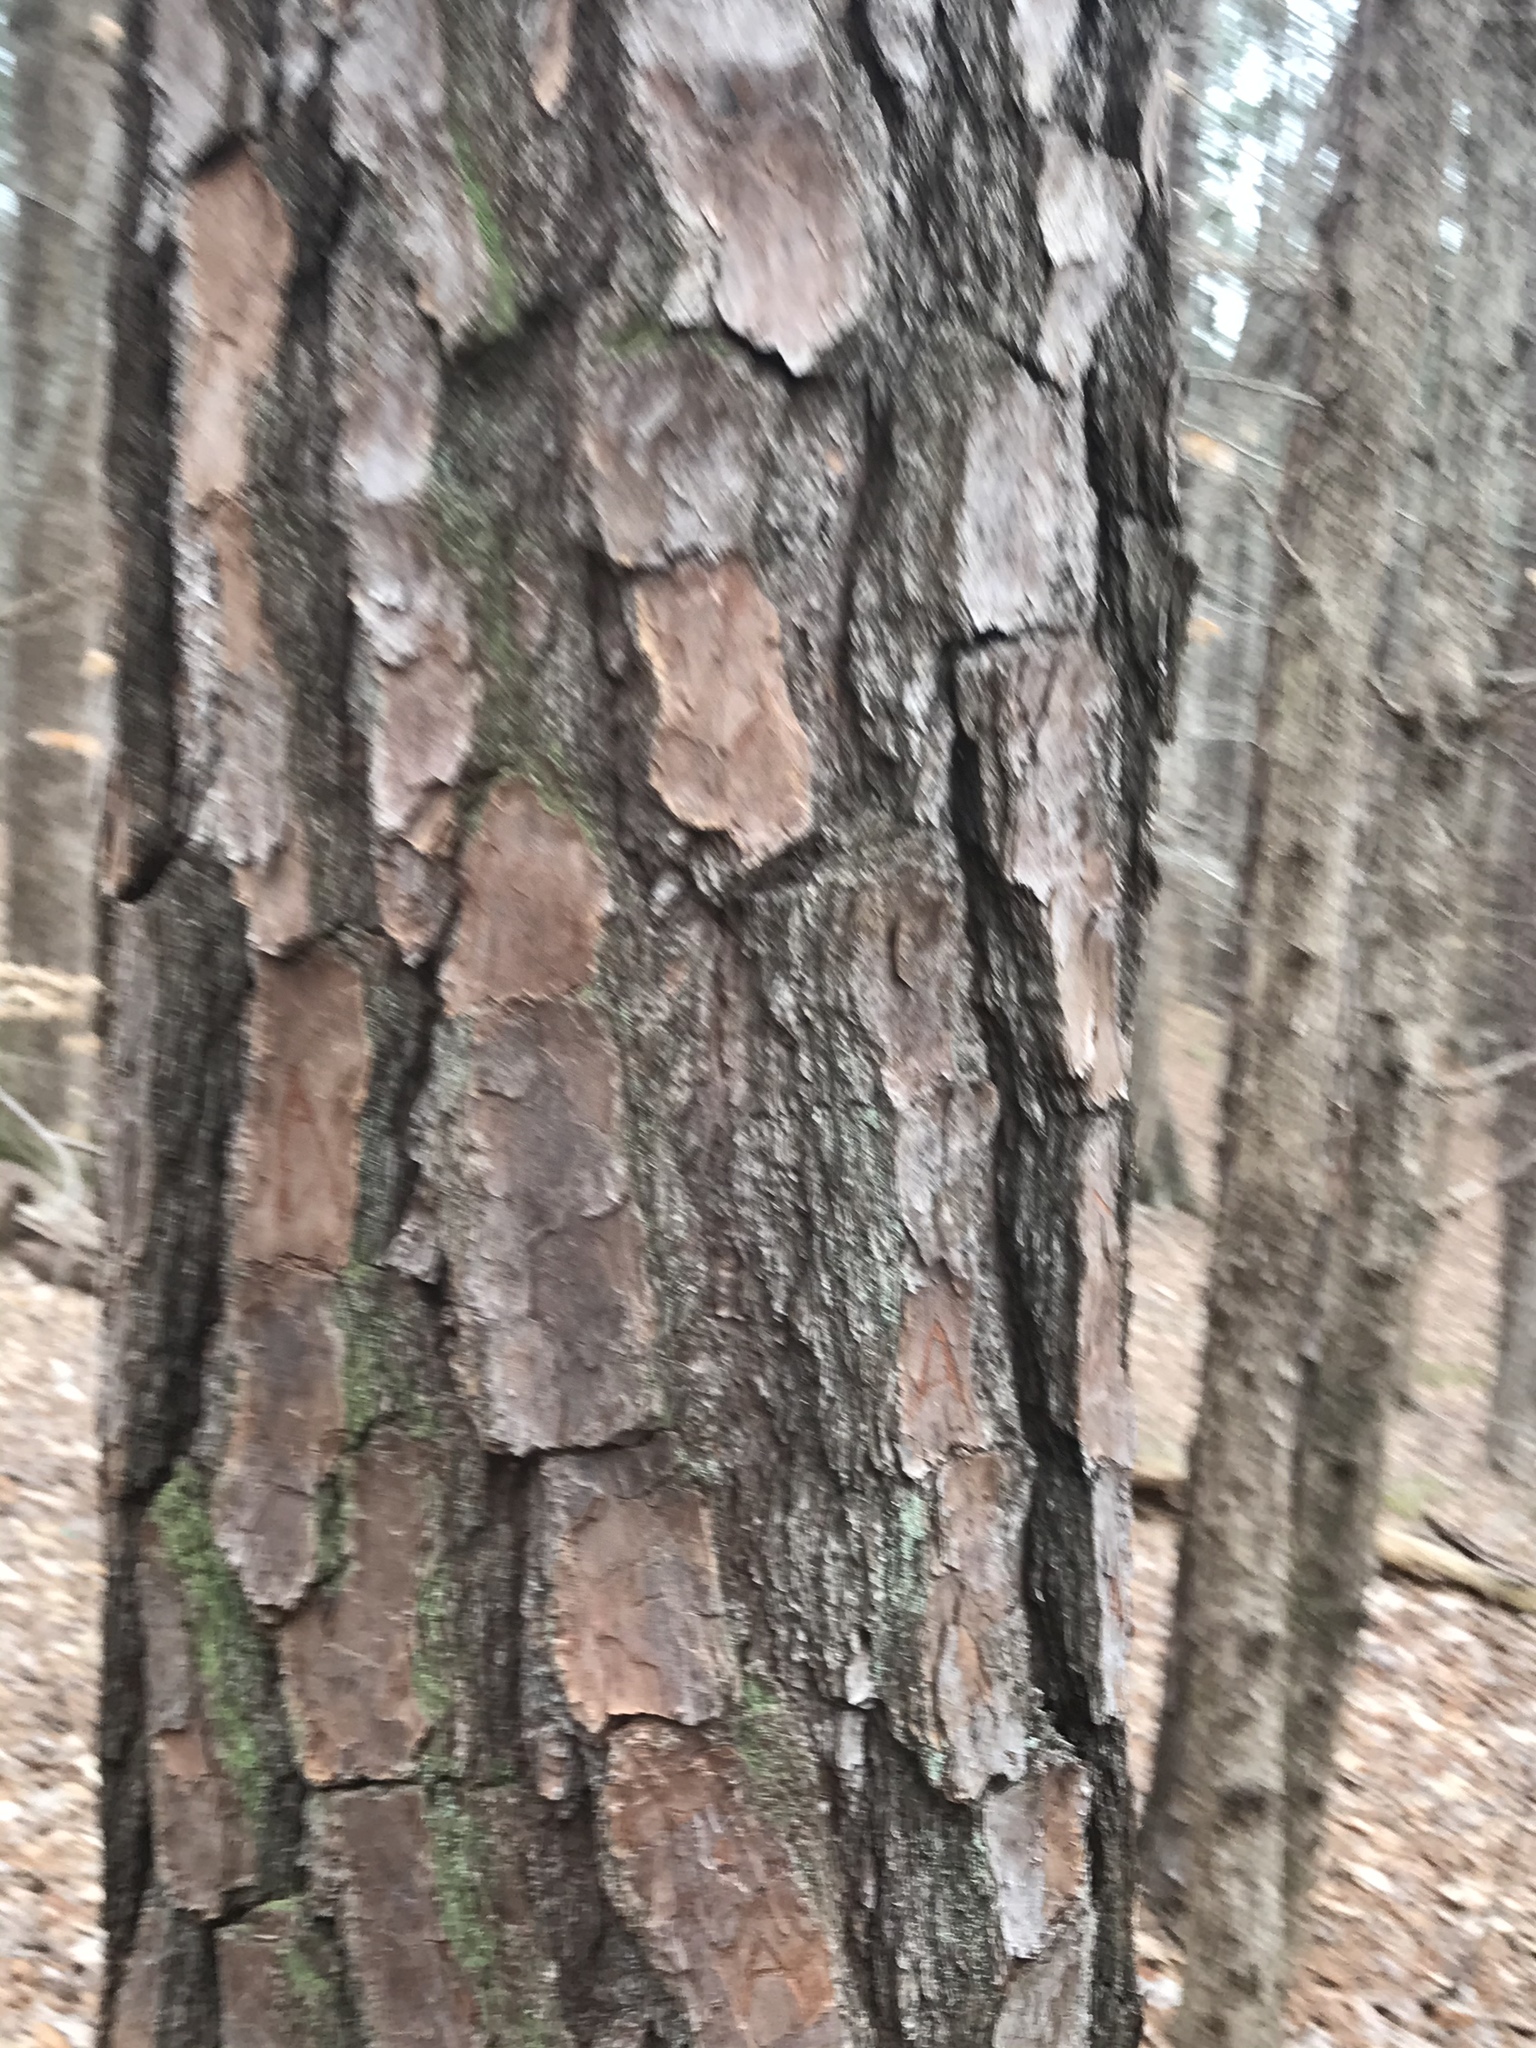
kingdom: Plantae
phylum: Tracheophyta
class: Pinopsida
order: Pinales
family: Pinaceae
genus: Pinus
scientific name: Pinus taeda
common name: Loblolly pine
